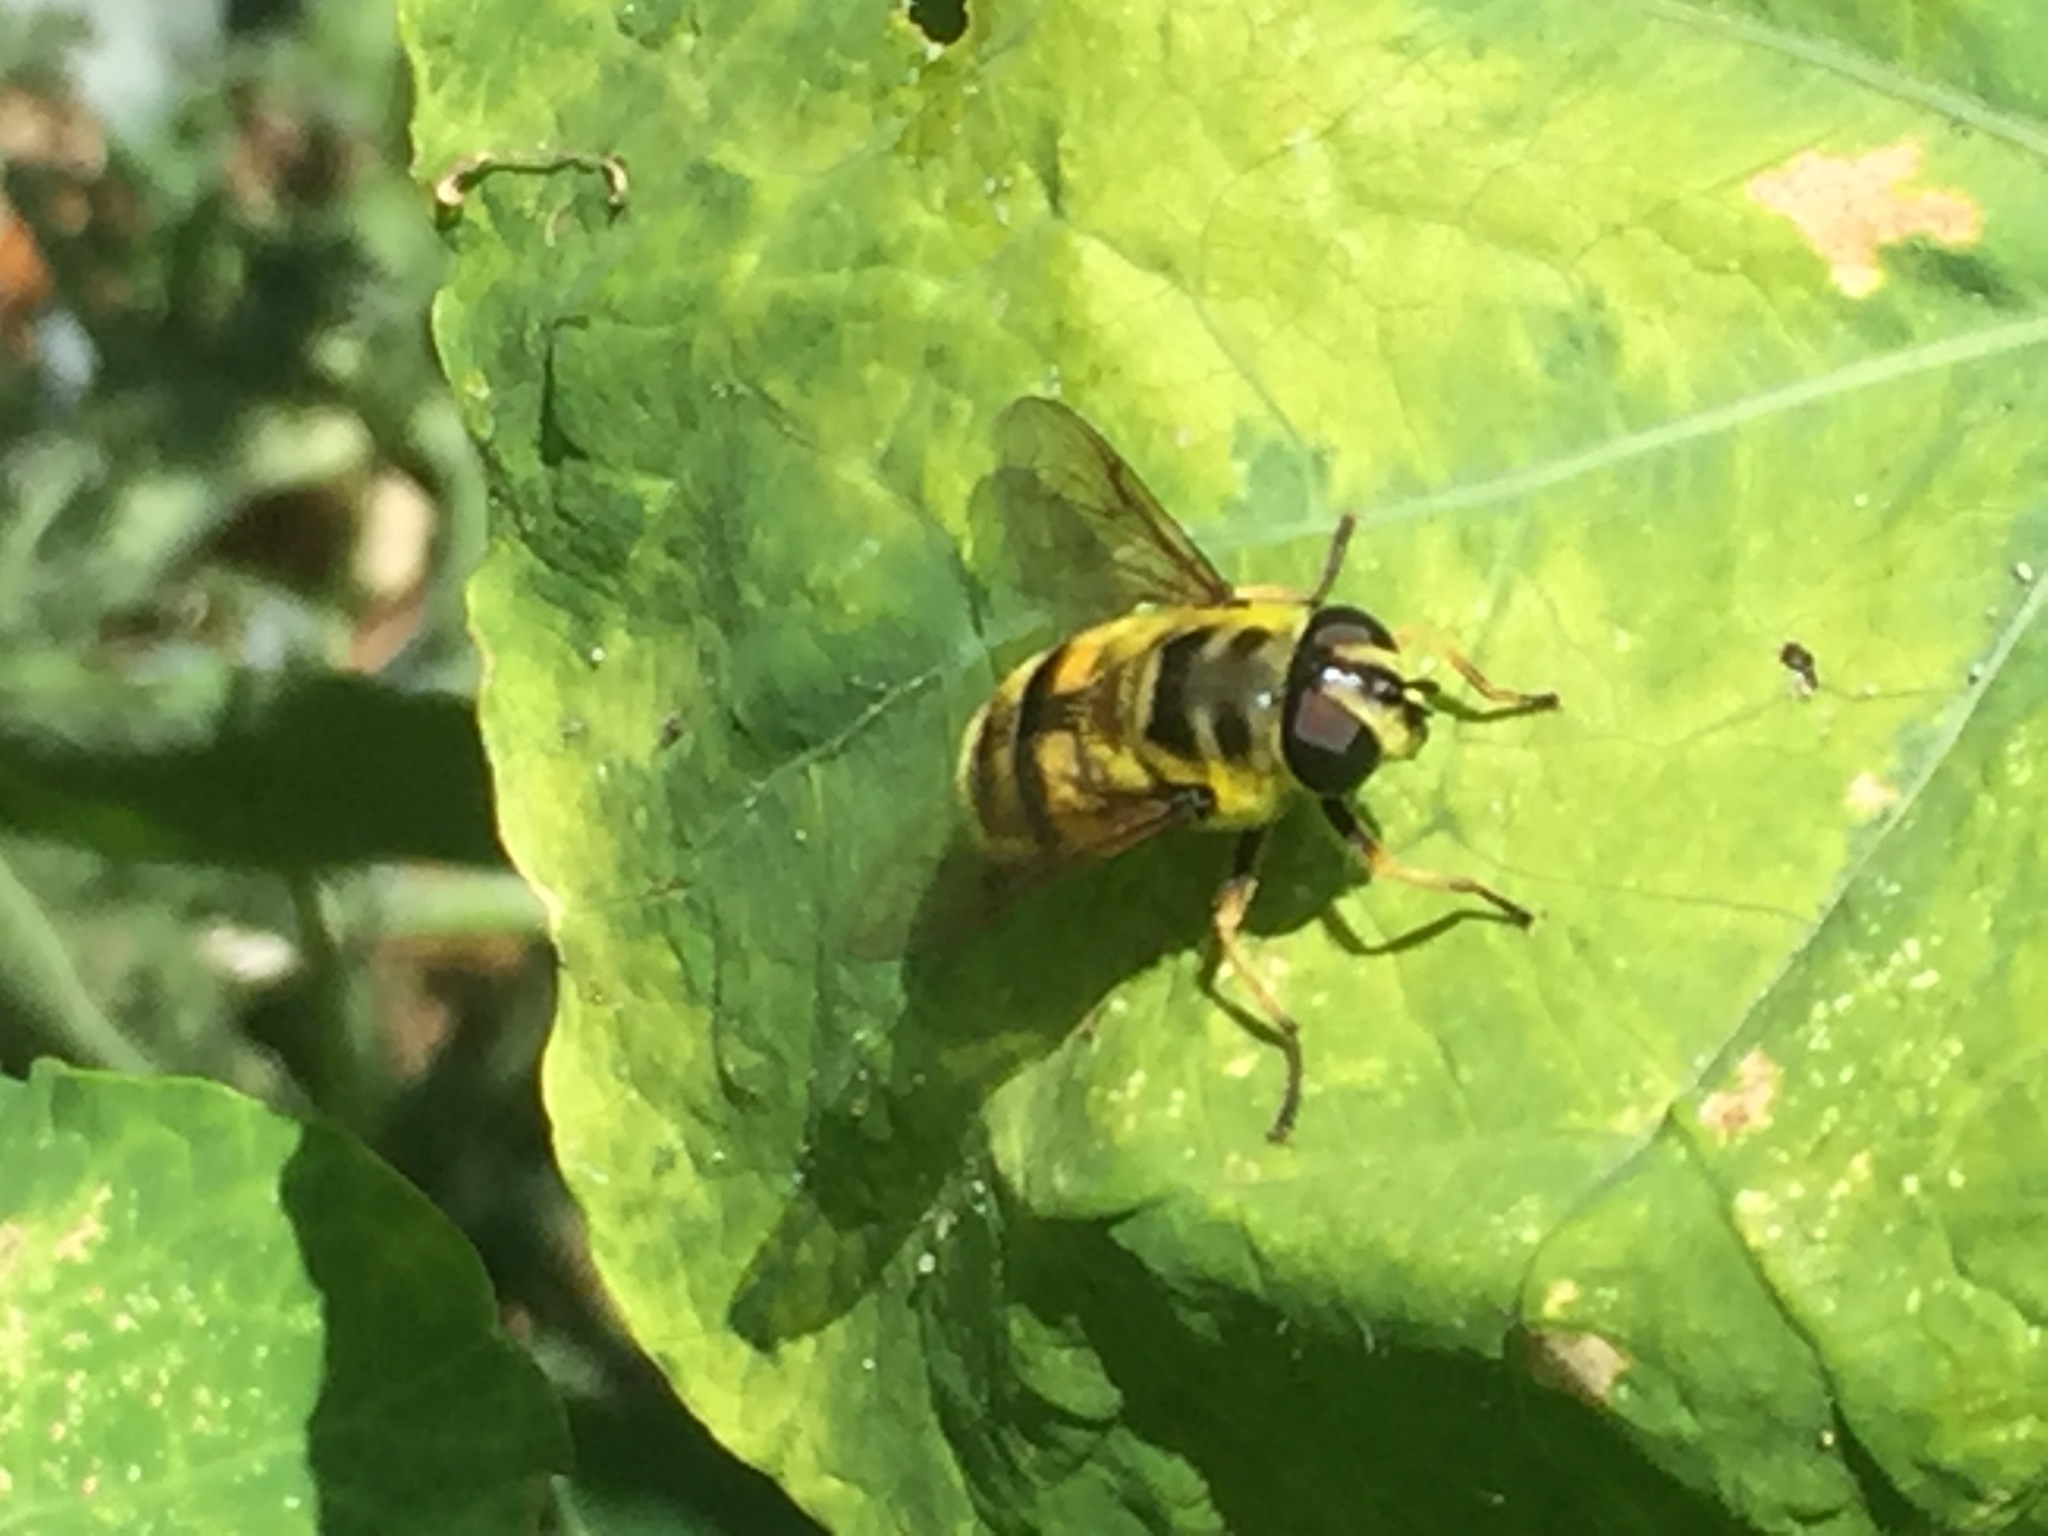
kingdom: Animalia
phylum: Arthropoda
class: Insecta
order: Diptera
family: Syrphidae
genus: Myathropa
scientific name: Myathropa florea
